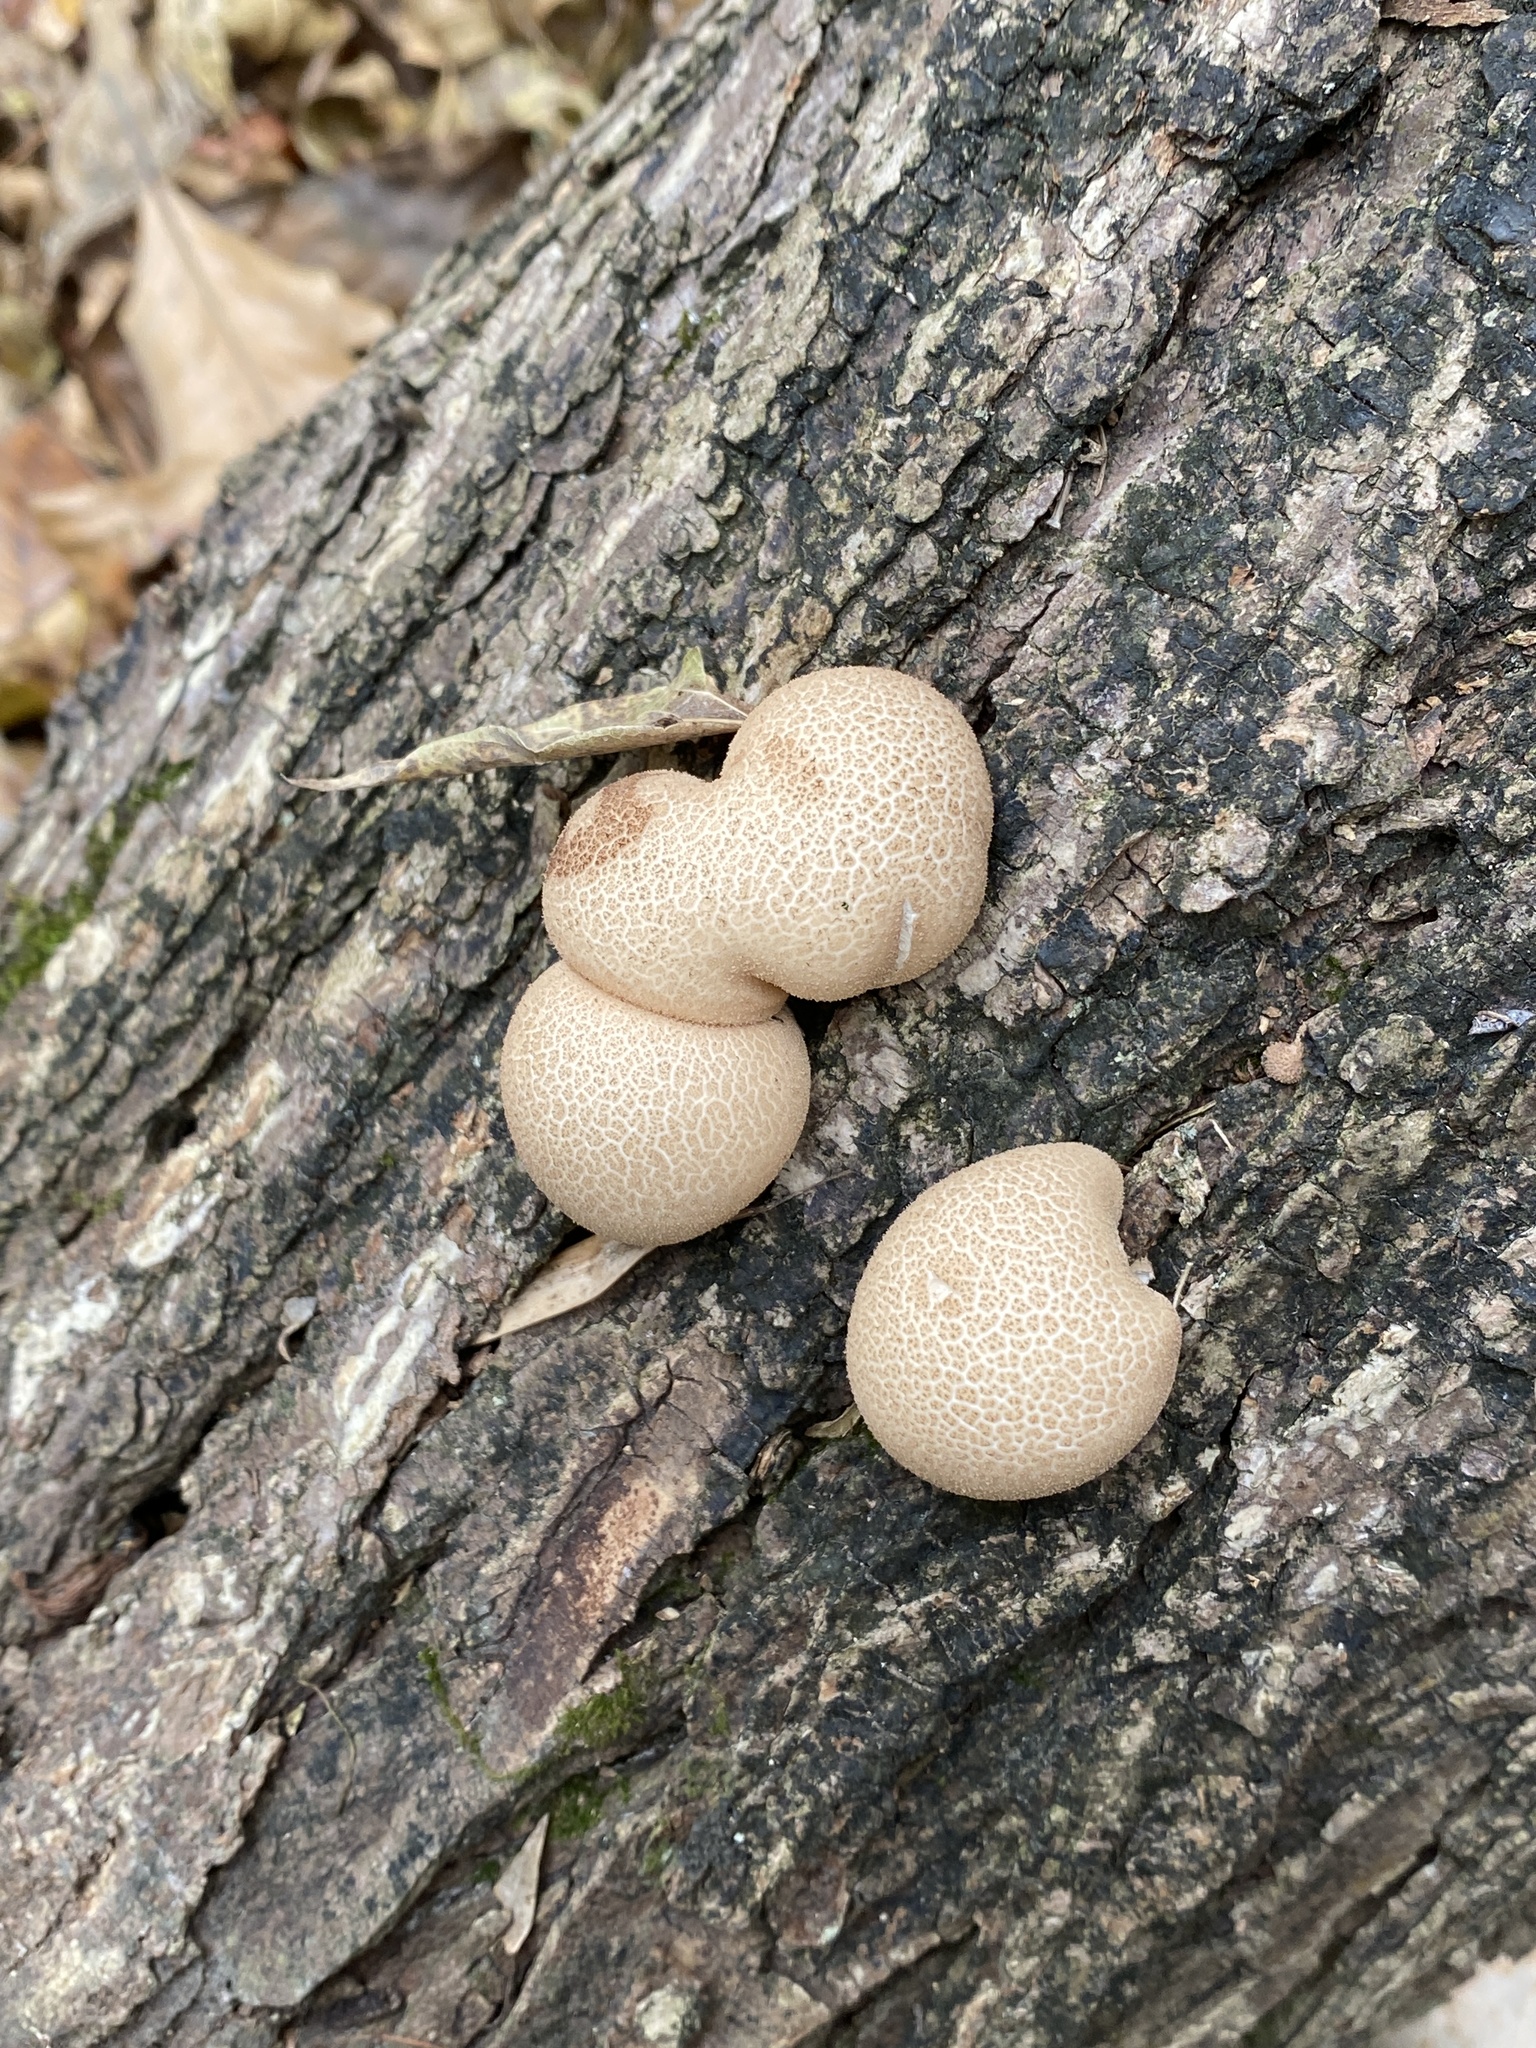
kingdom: Fungi
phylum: Basidiomycota
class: Agaricomycetes
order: Agaricales
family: Lycoperdaceae
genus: Apioperdon
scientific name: Apioperdon pyriforme
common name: Pear-shaped puffball
